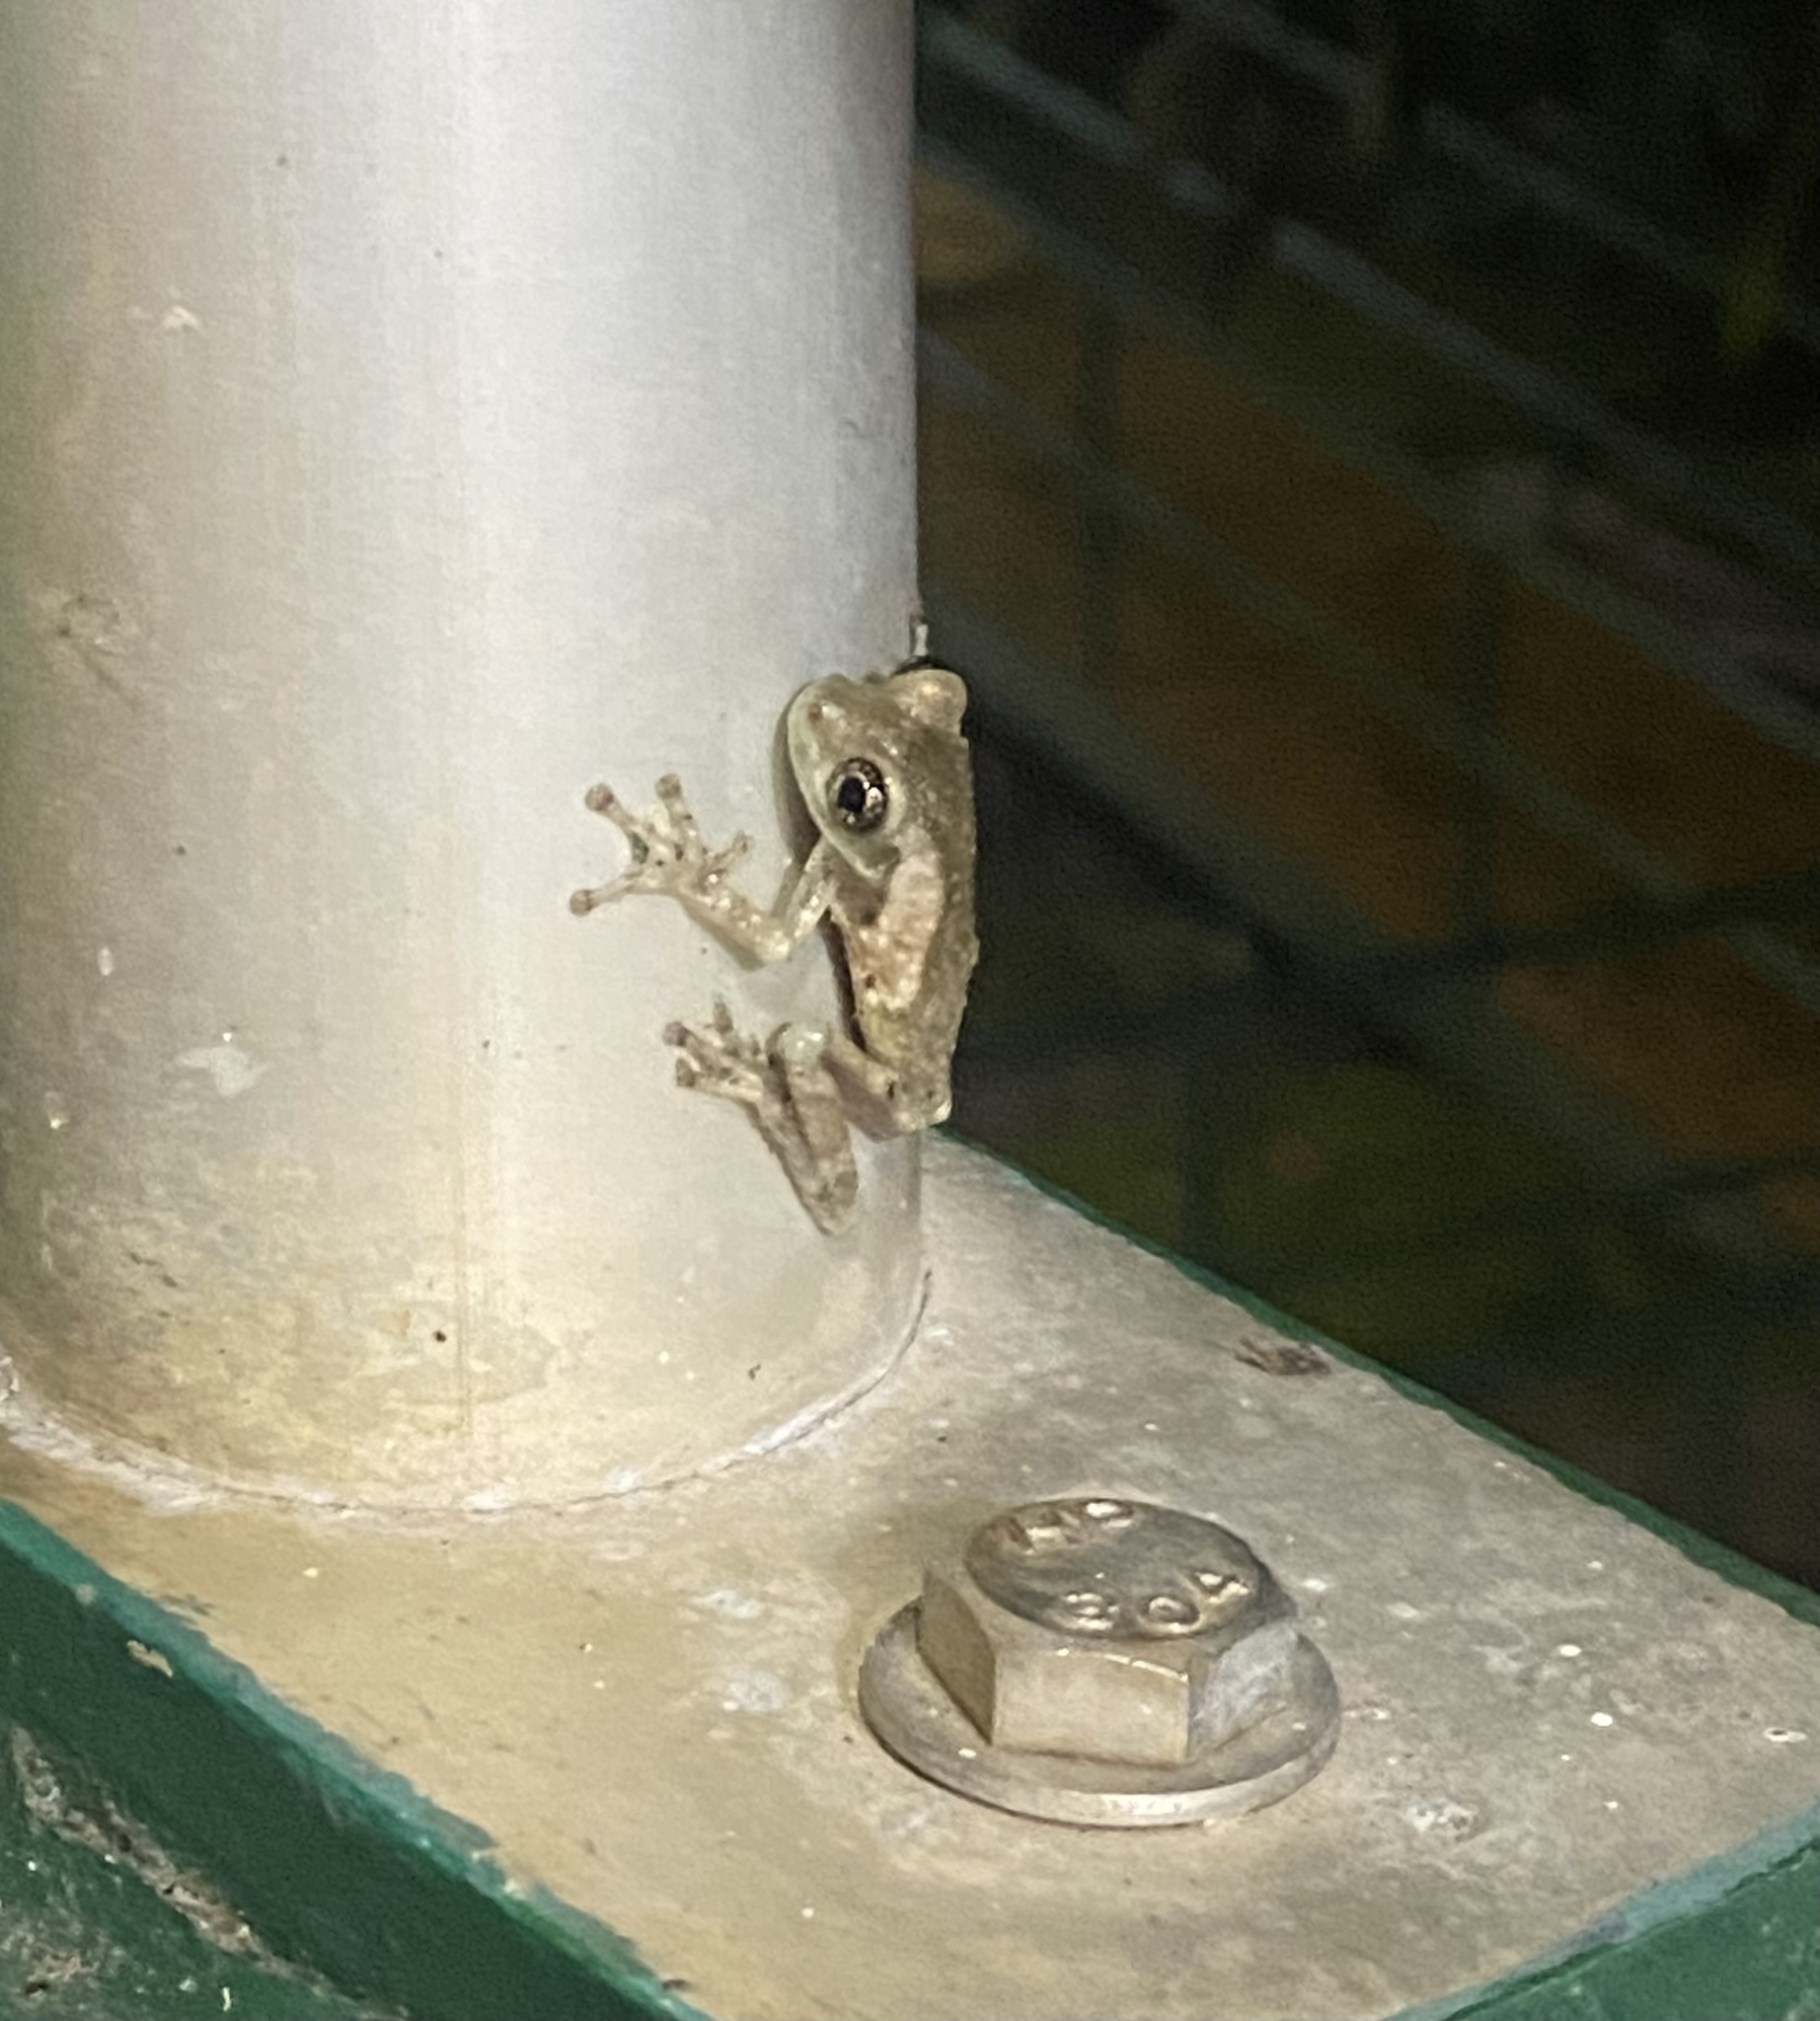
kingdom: Animalia
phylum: Chordata
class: Amphibia
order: Anura
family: Hylidae
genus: Trachycephalus
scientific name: Trachycephalus vermiculatus
